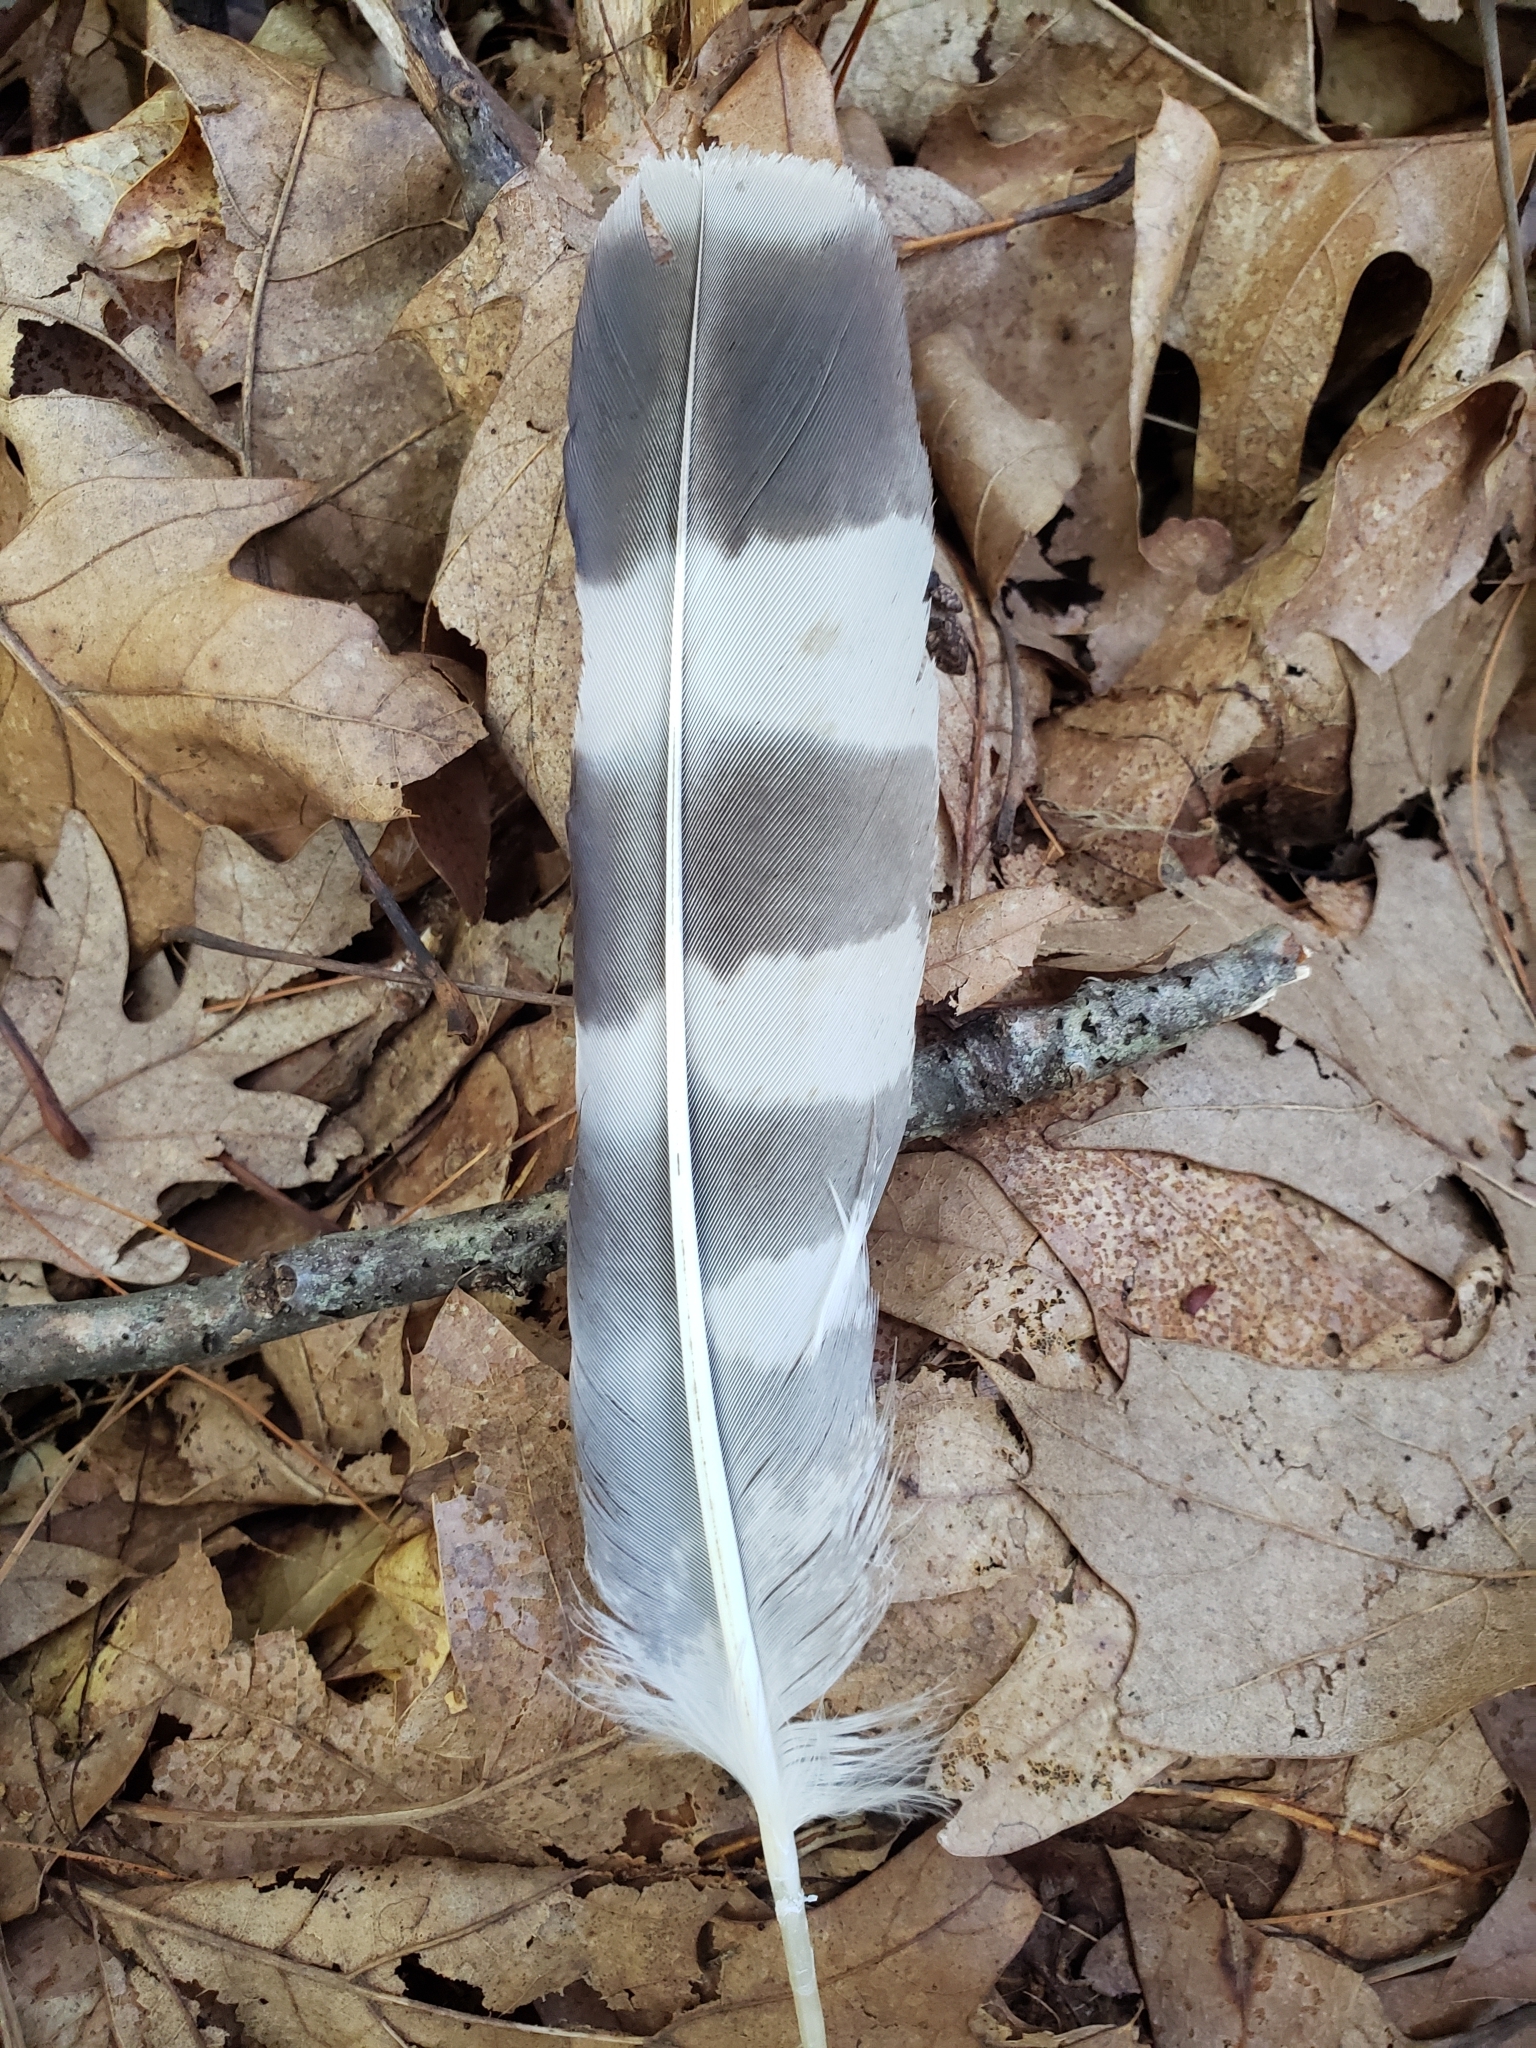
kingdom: Animalia
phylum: Chordata
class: Aves
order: Accipitriformes
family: Accipitridae
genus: Buteo
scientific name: Buteo platypterus
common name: Broad-winged hawk
